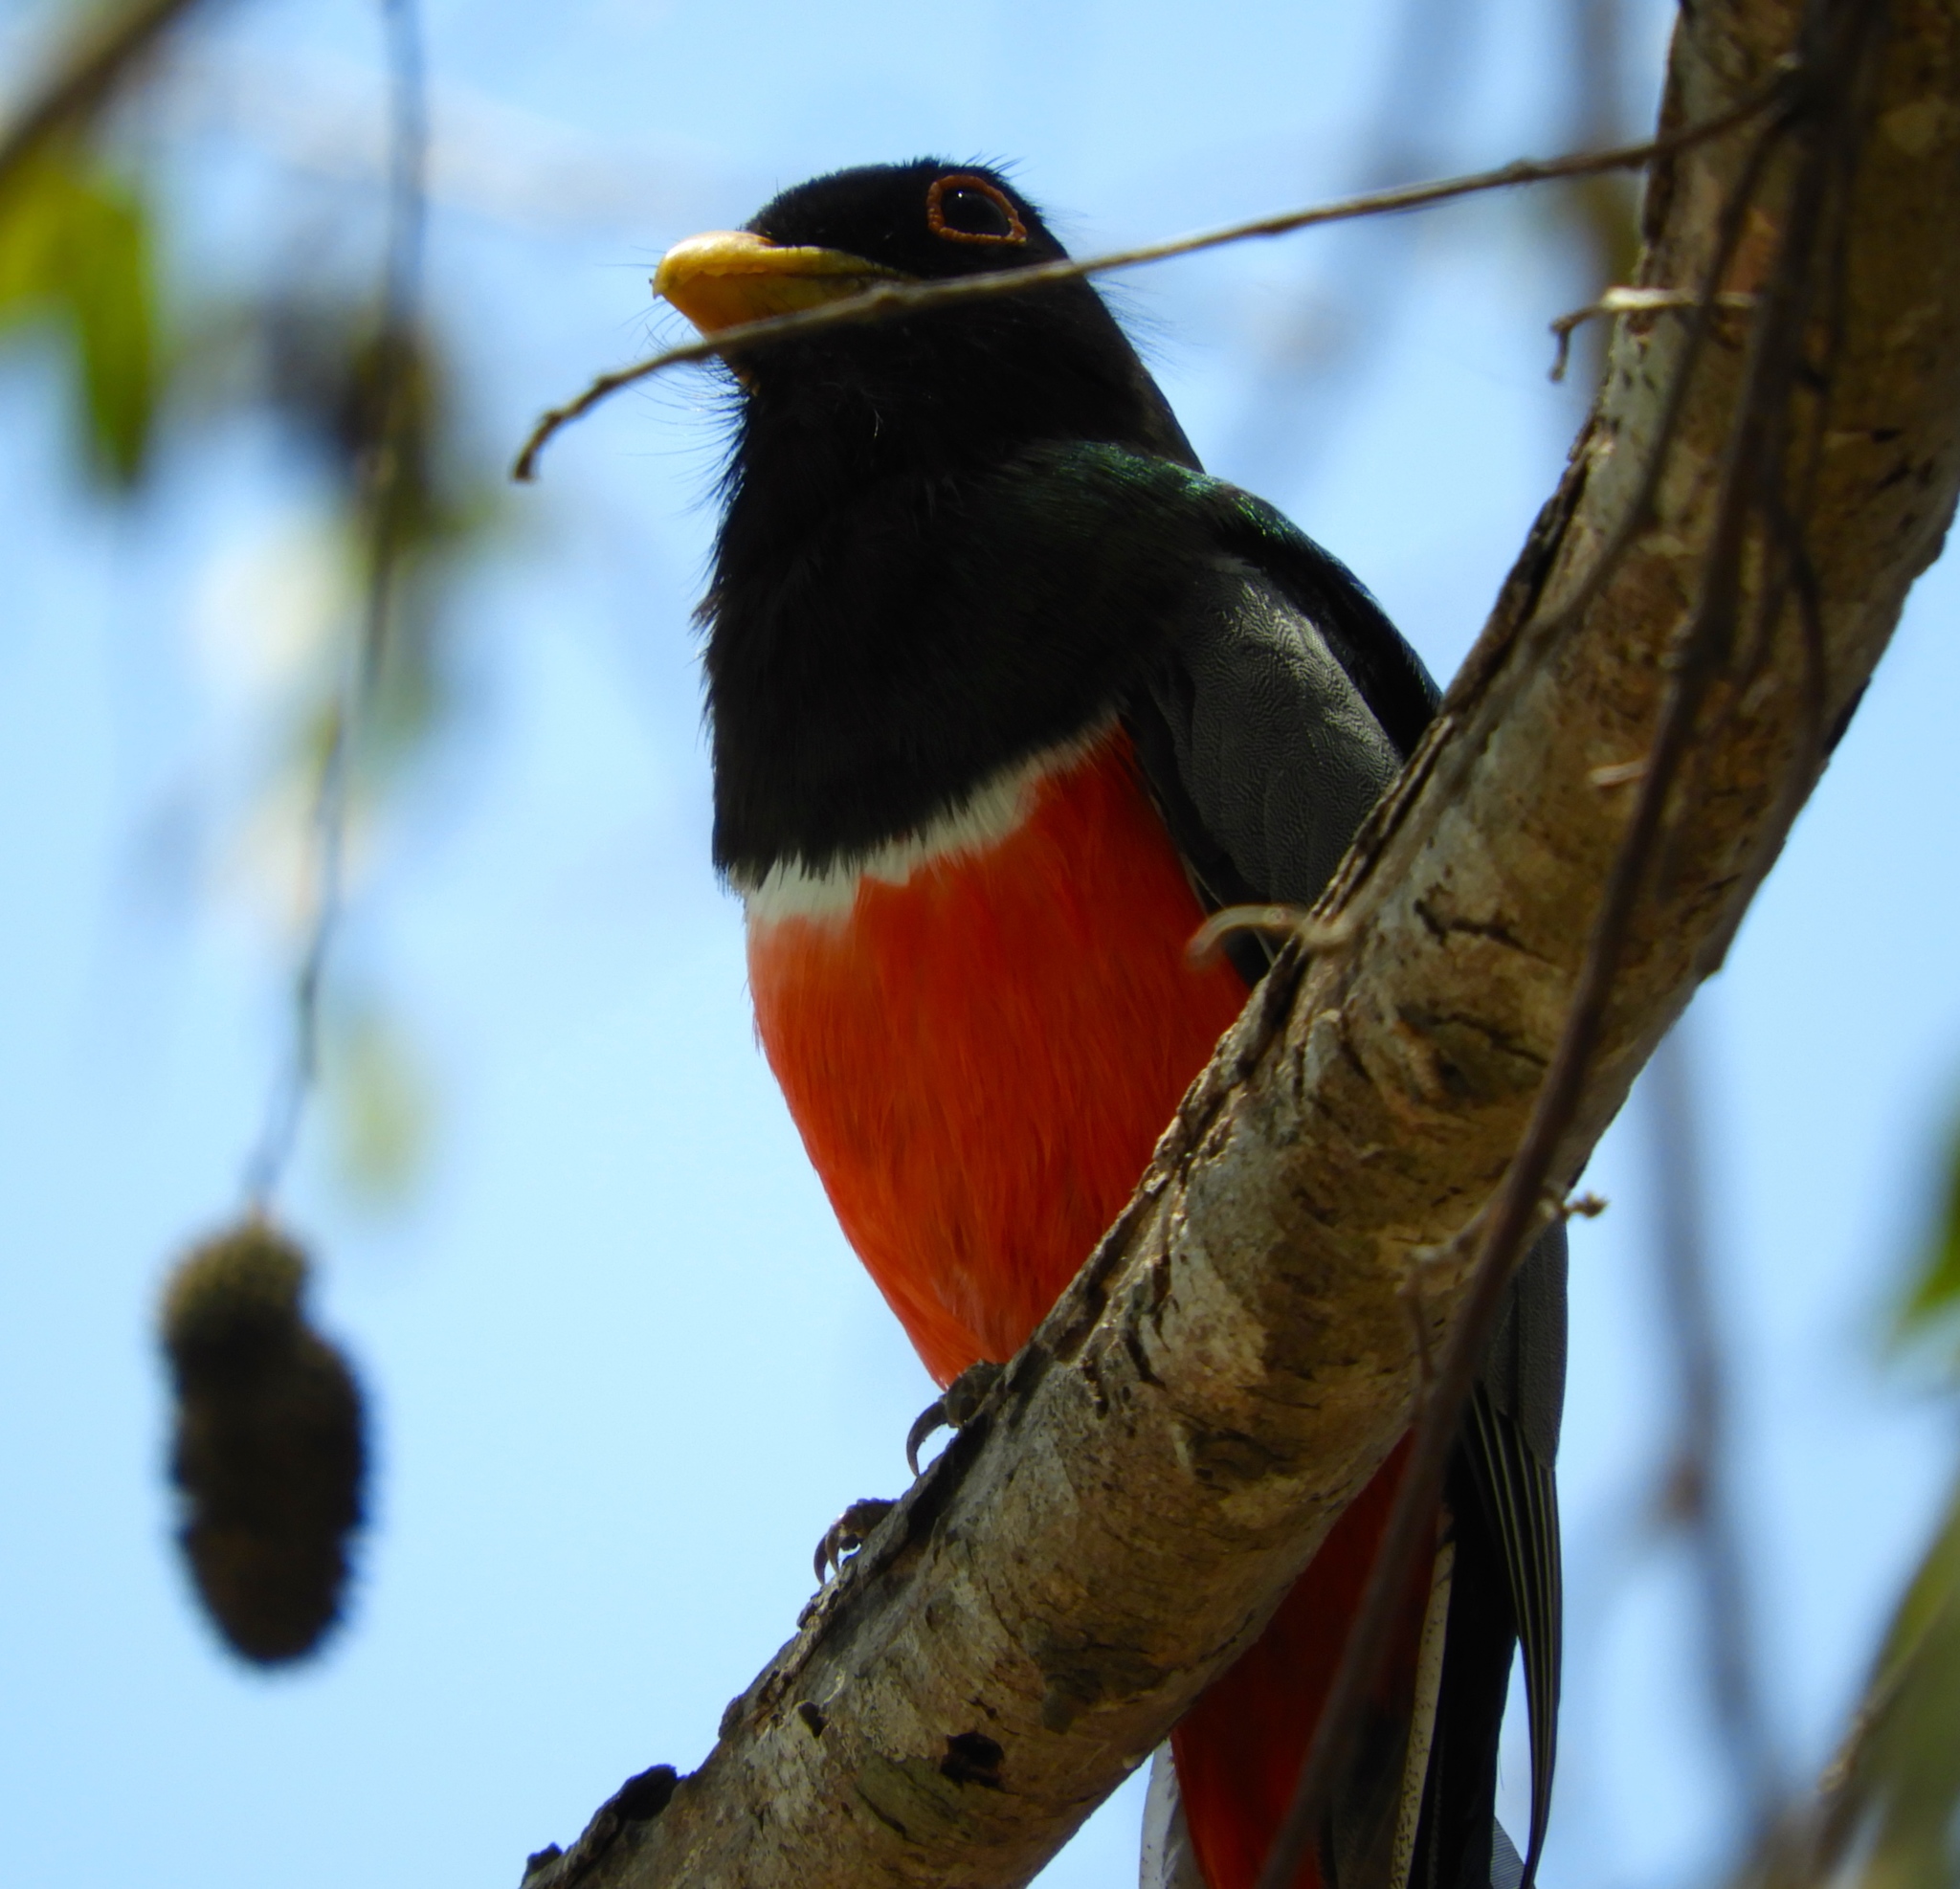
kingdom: Animalia
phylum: Chordata
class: Aves
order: Trogoniformes
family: Trogonidae
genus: Trogon
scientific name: Trogon elegans
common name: Elegant trogon
